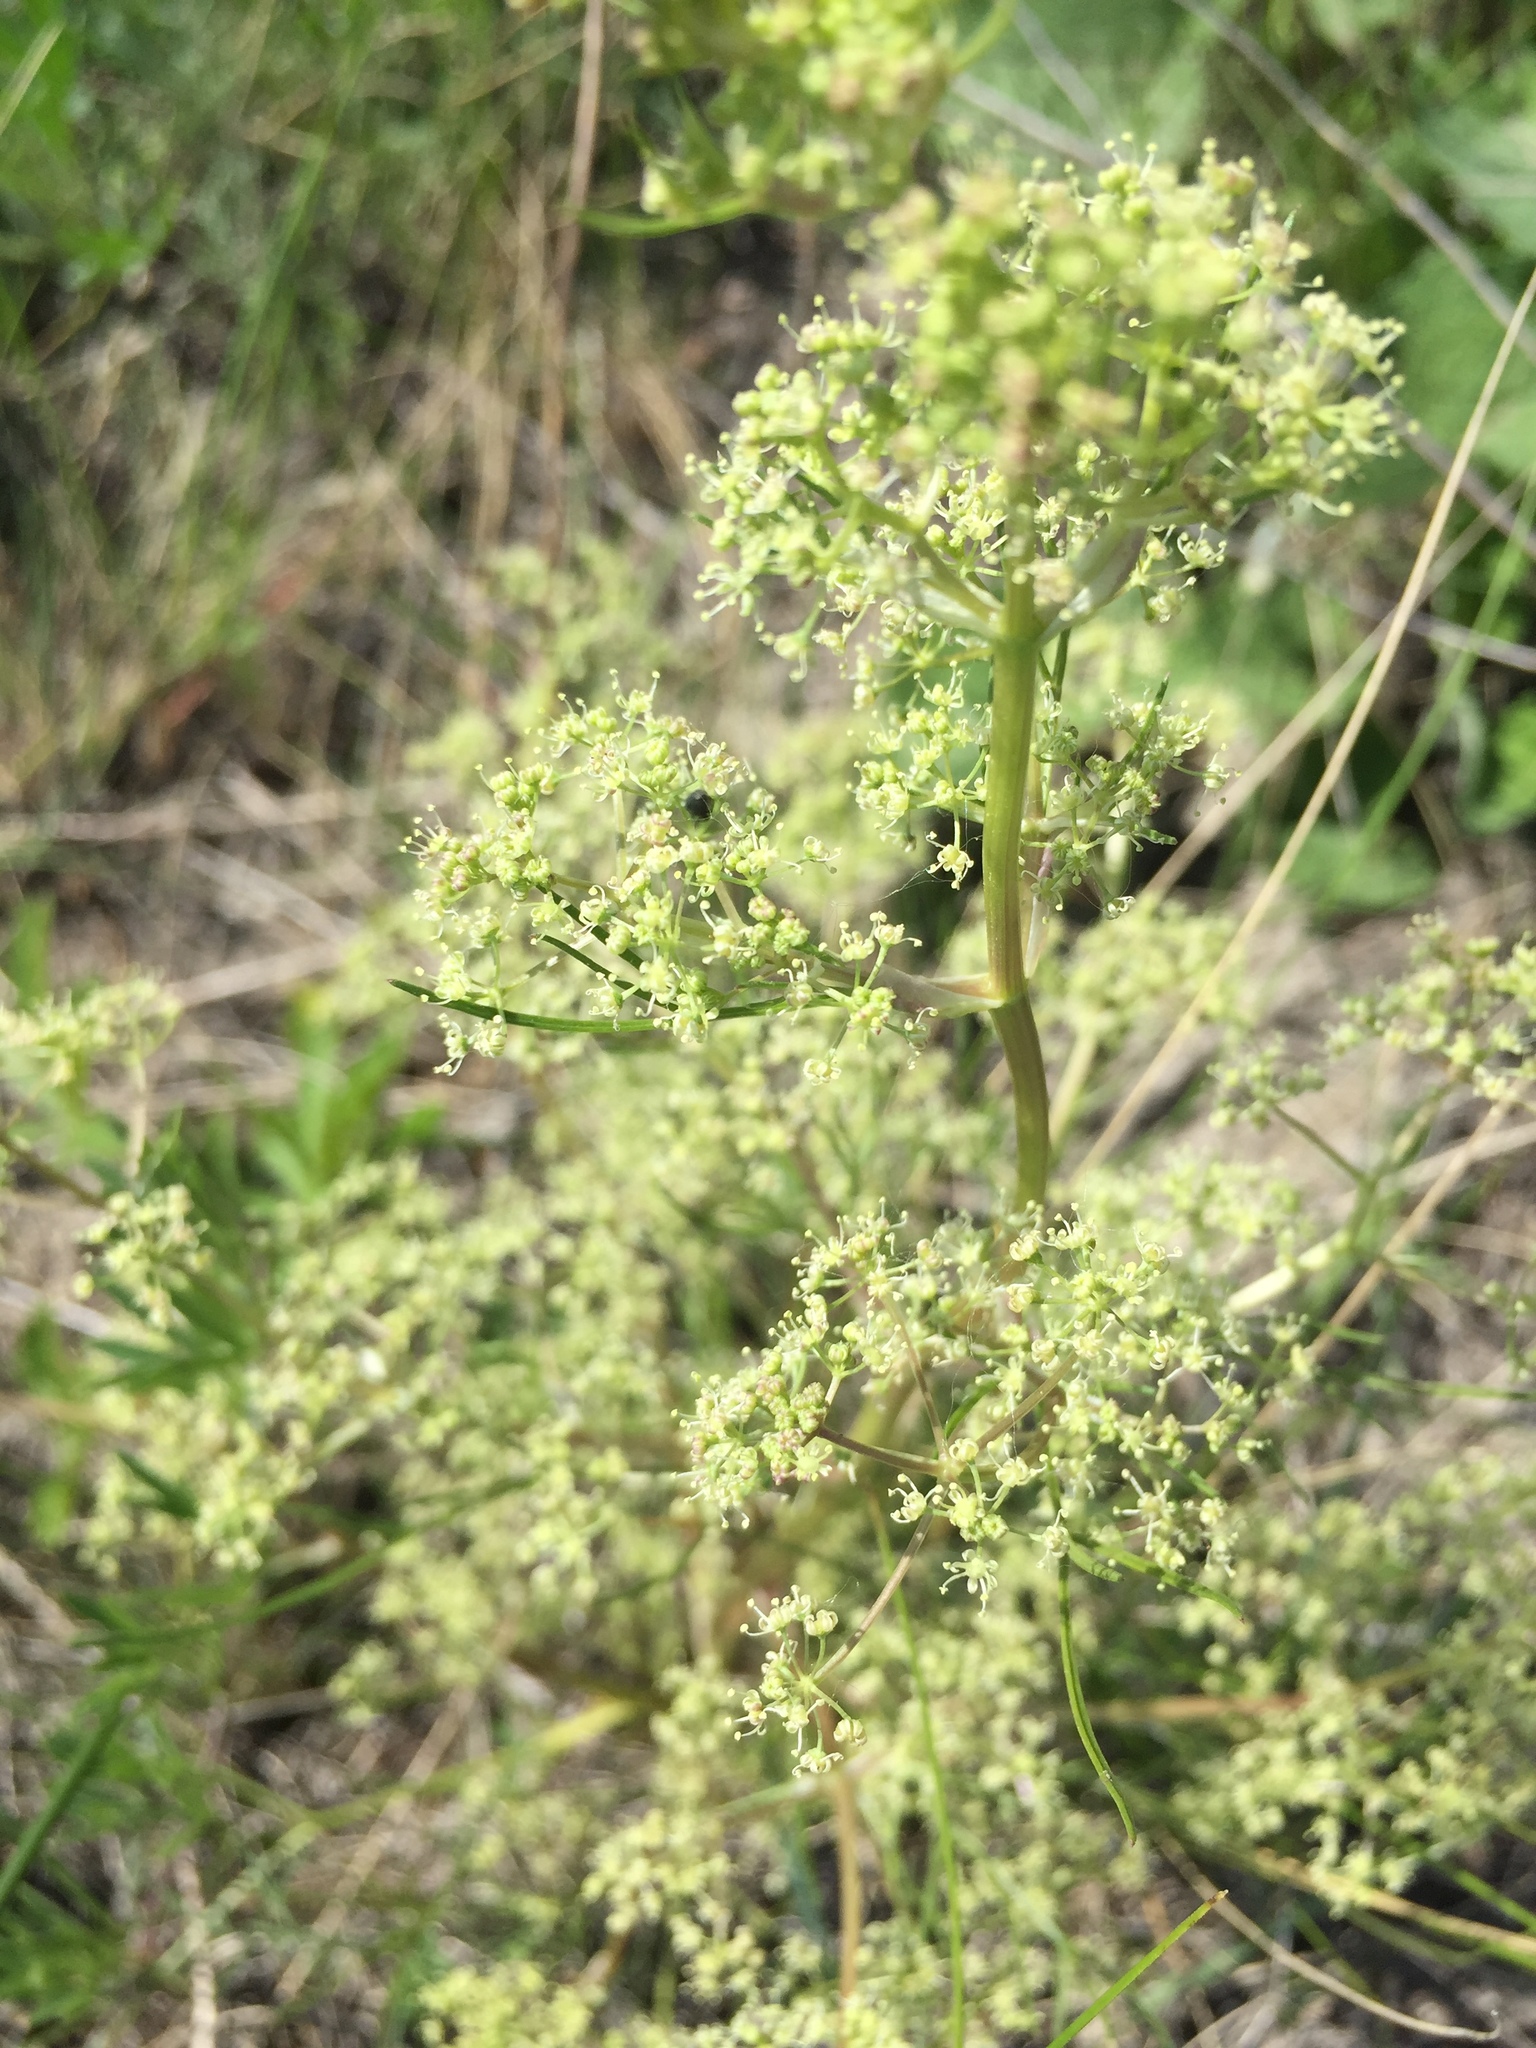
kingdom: Plantae
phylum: Tracheophyta
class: Magnoliopsida
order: Apiales
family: Apiaceae
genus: Trinia
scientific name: Trinia multicaulis
